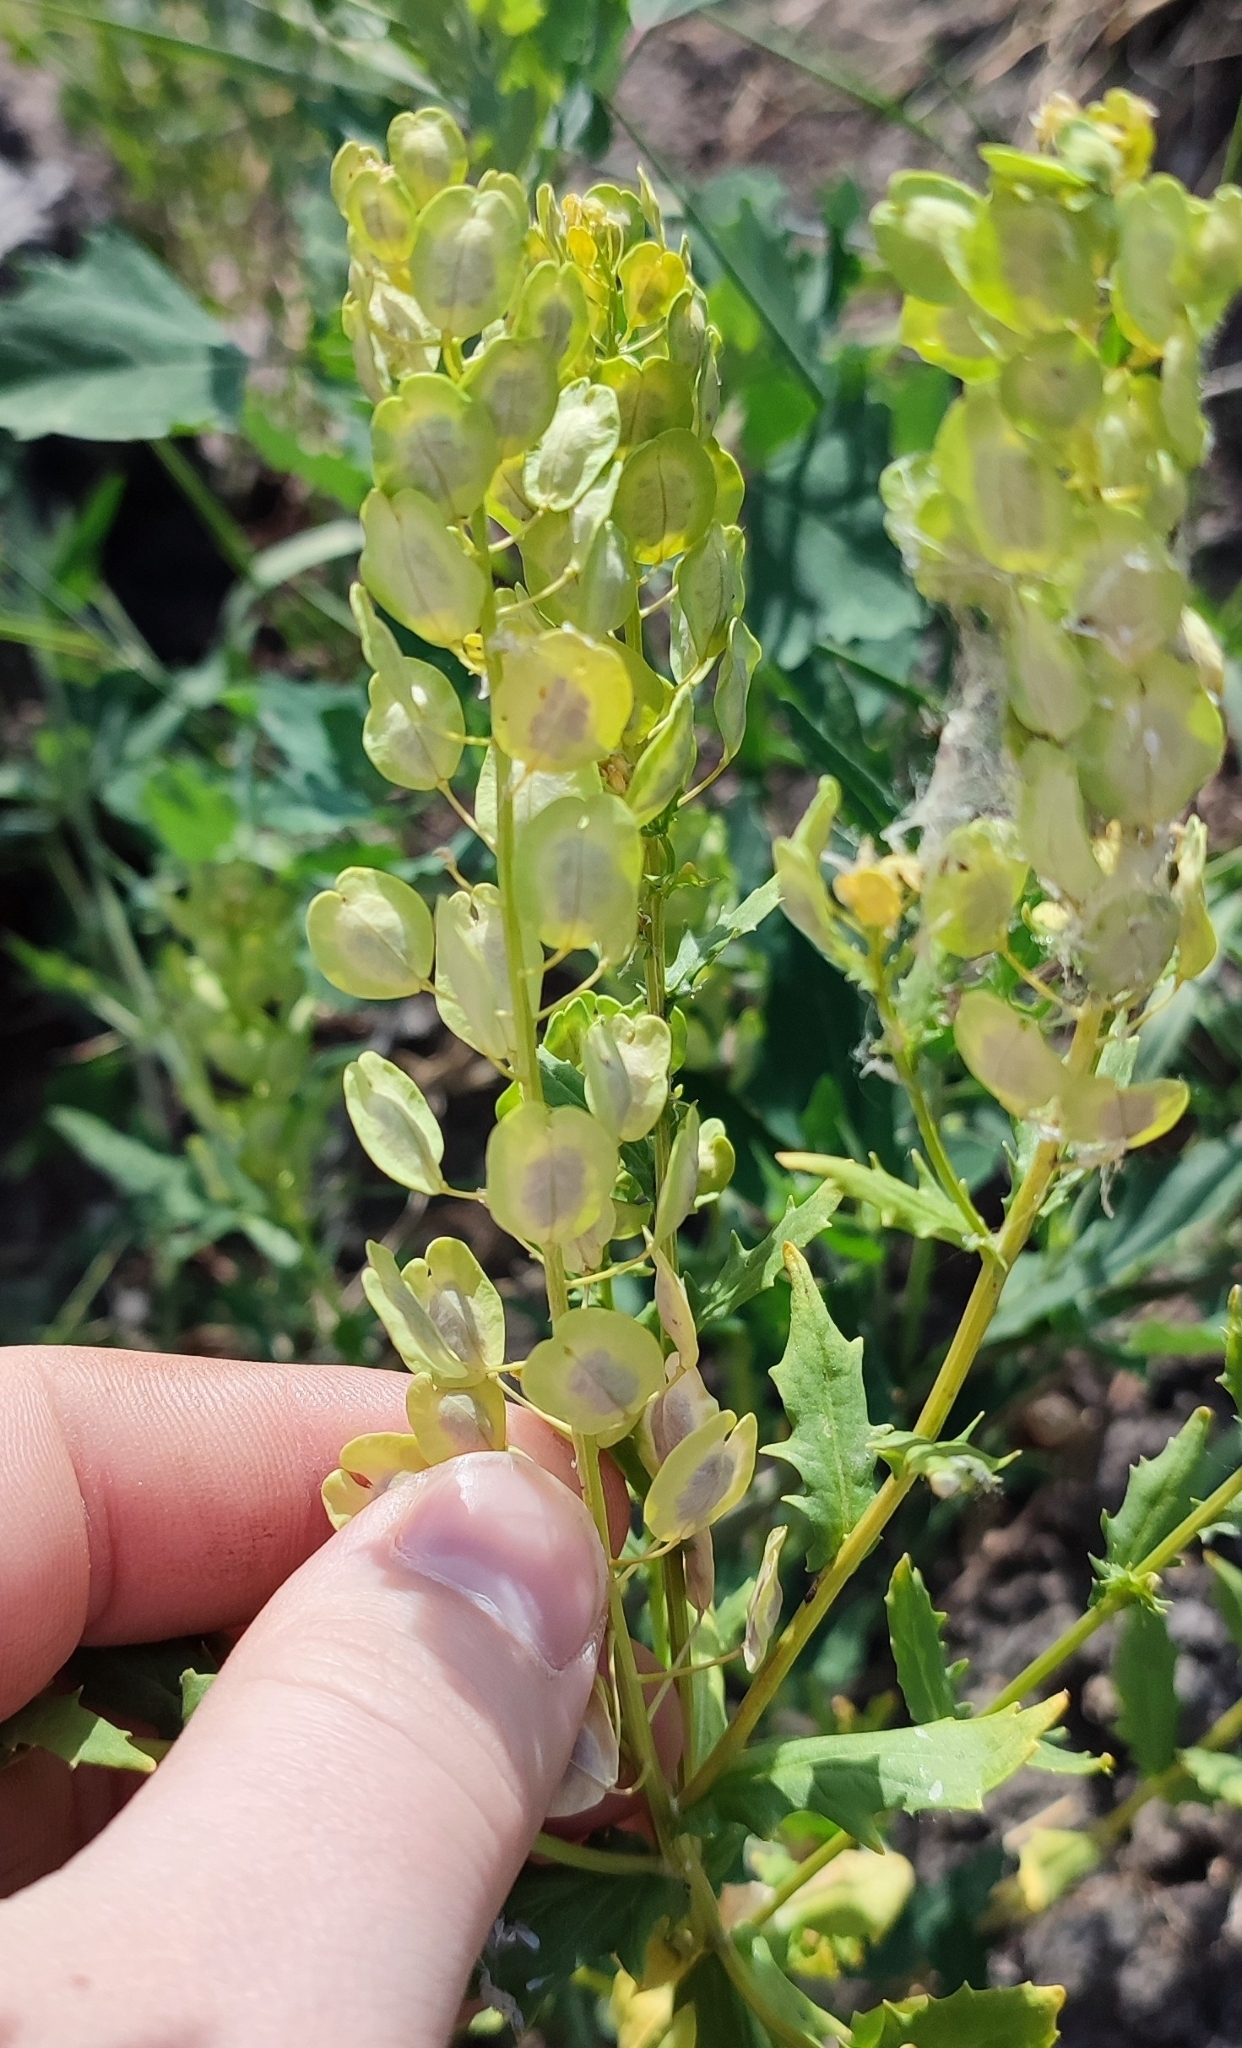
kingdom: Plantae
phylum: Tracheophyta
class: Magnoliopsida
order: Brassicales
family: Brassicaceae
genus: Thlaspi
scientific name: Thlaspi arvense
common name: Field pennycress
